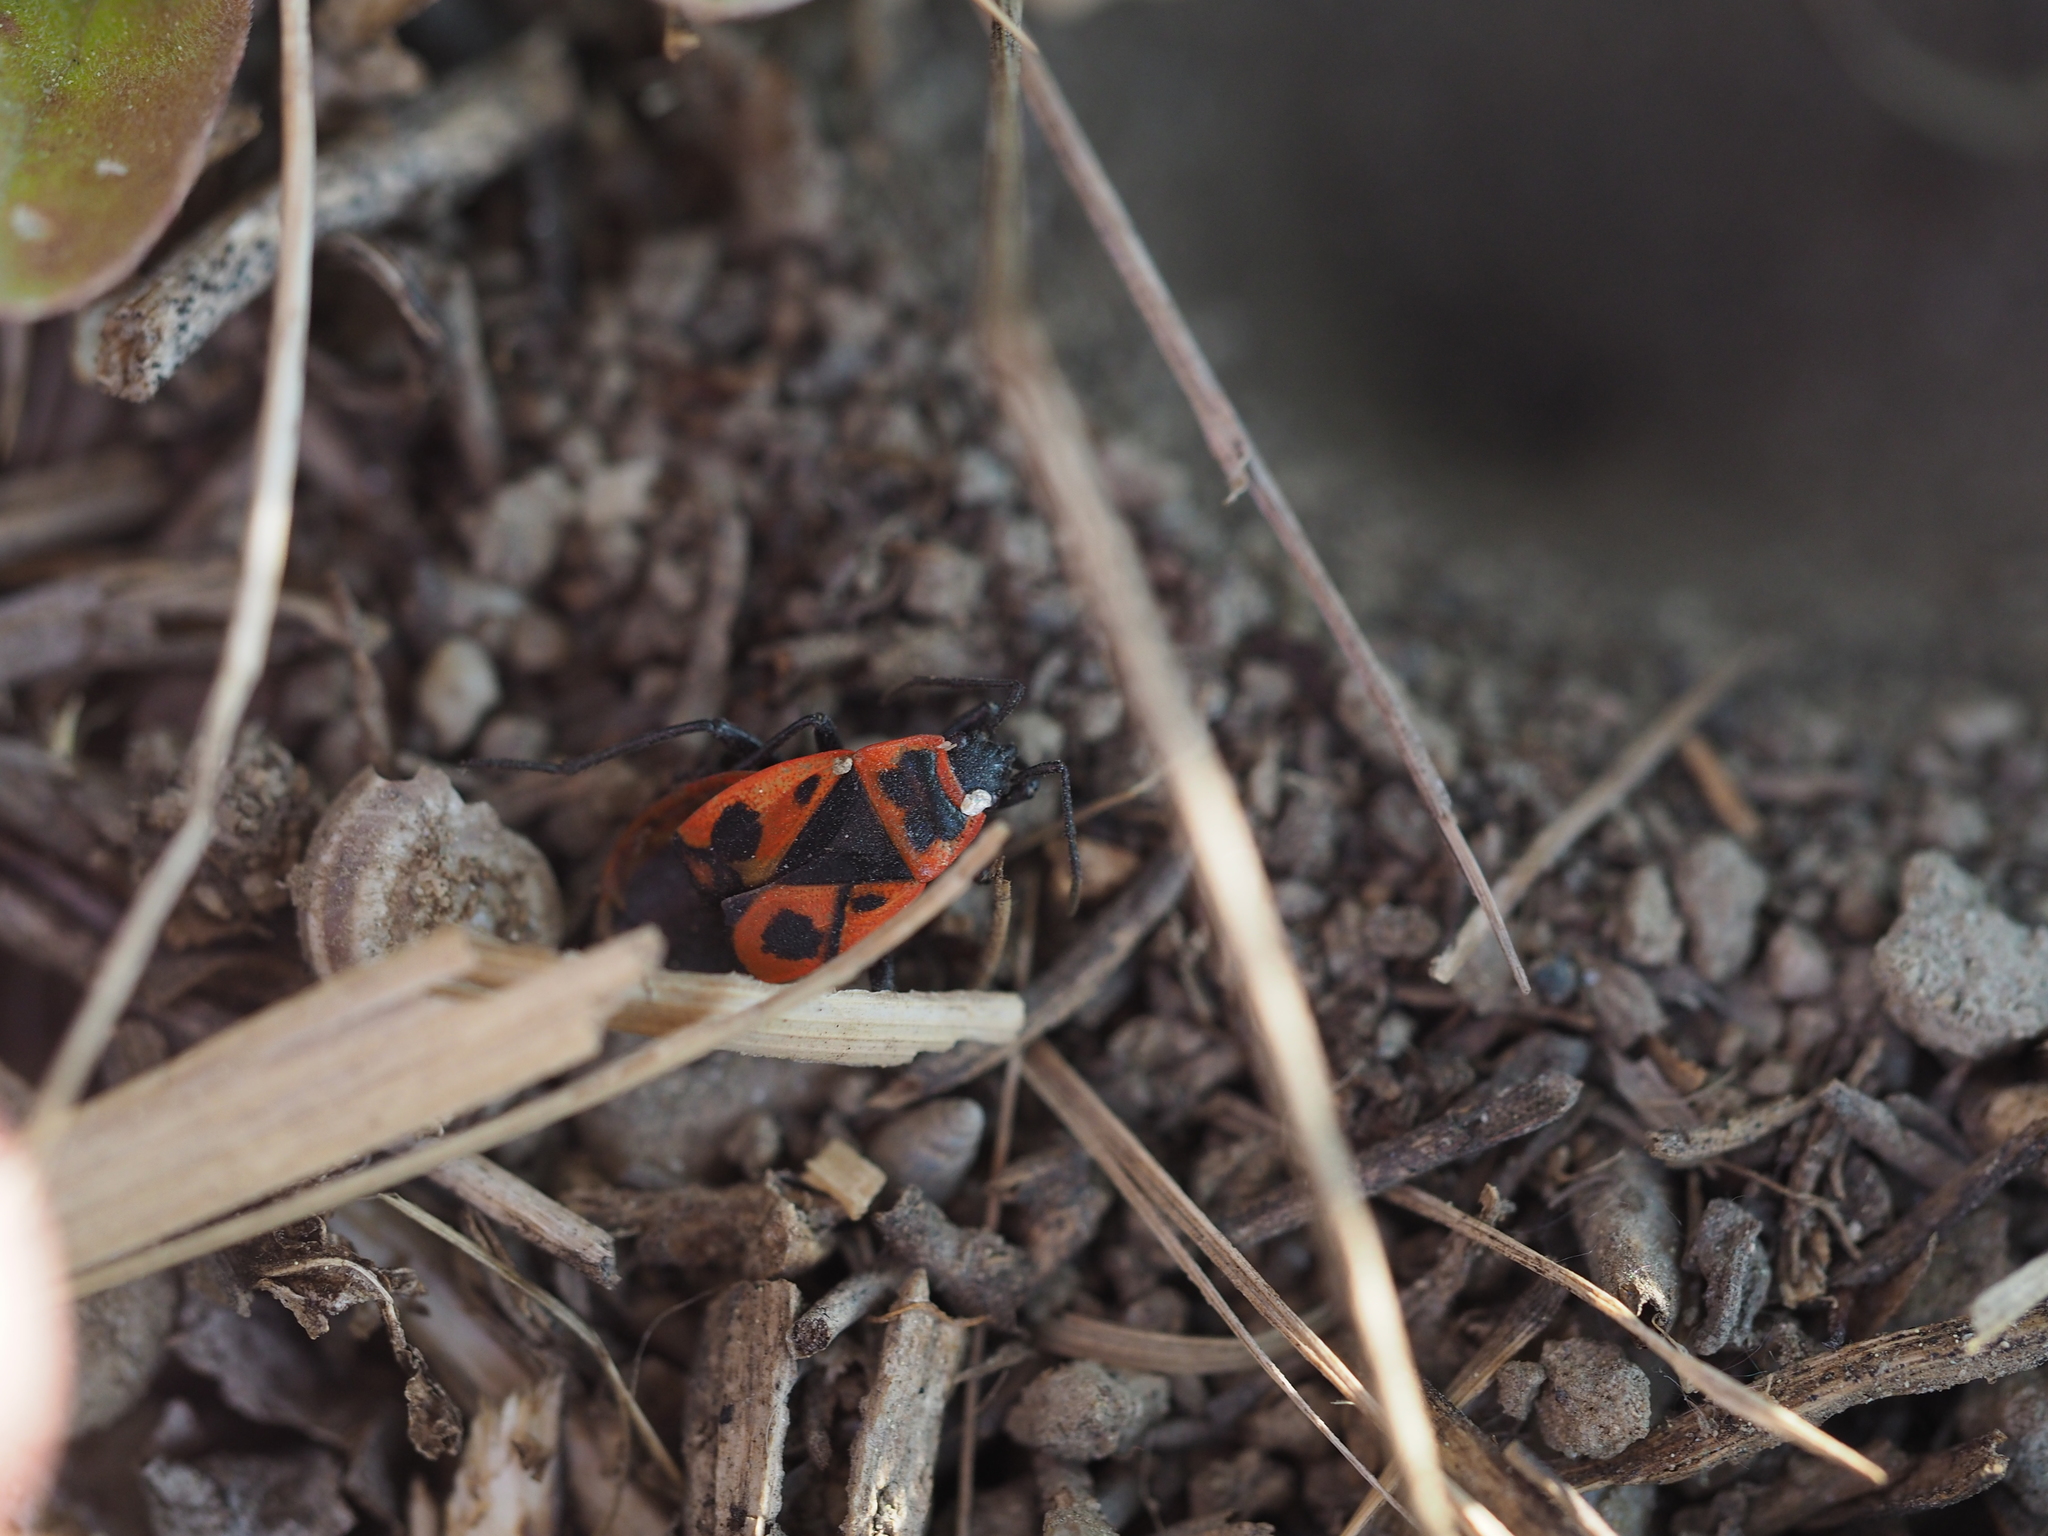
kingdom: Animalia
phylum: Arthropoda
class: Insecta
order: Hemiptera
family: Pyrrhocoridae
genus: Pyrrhocoris
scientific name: Pyrrhocoris apterus
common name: Firebug
